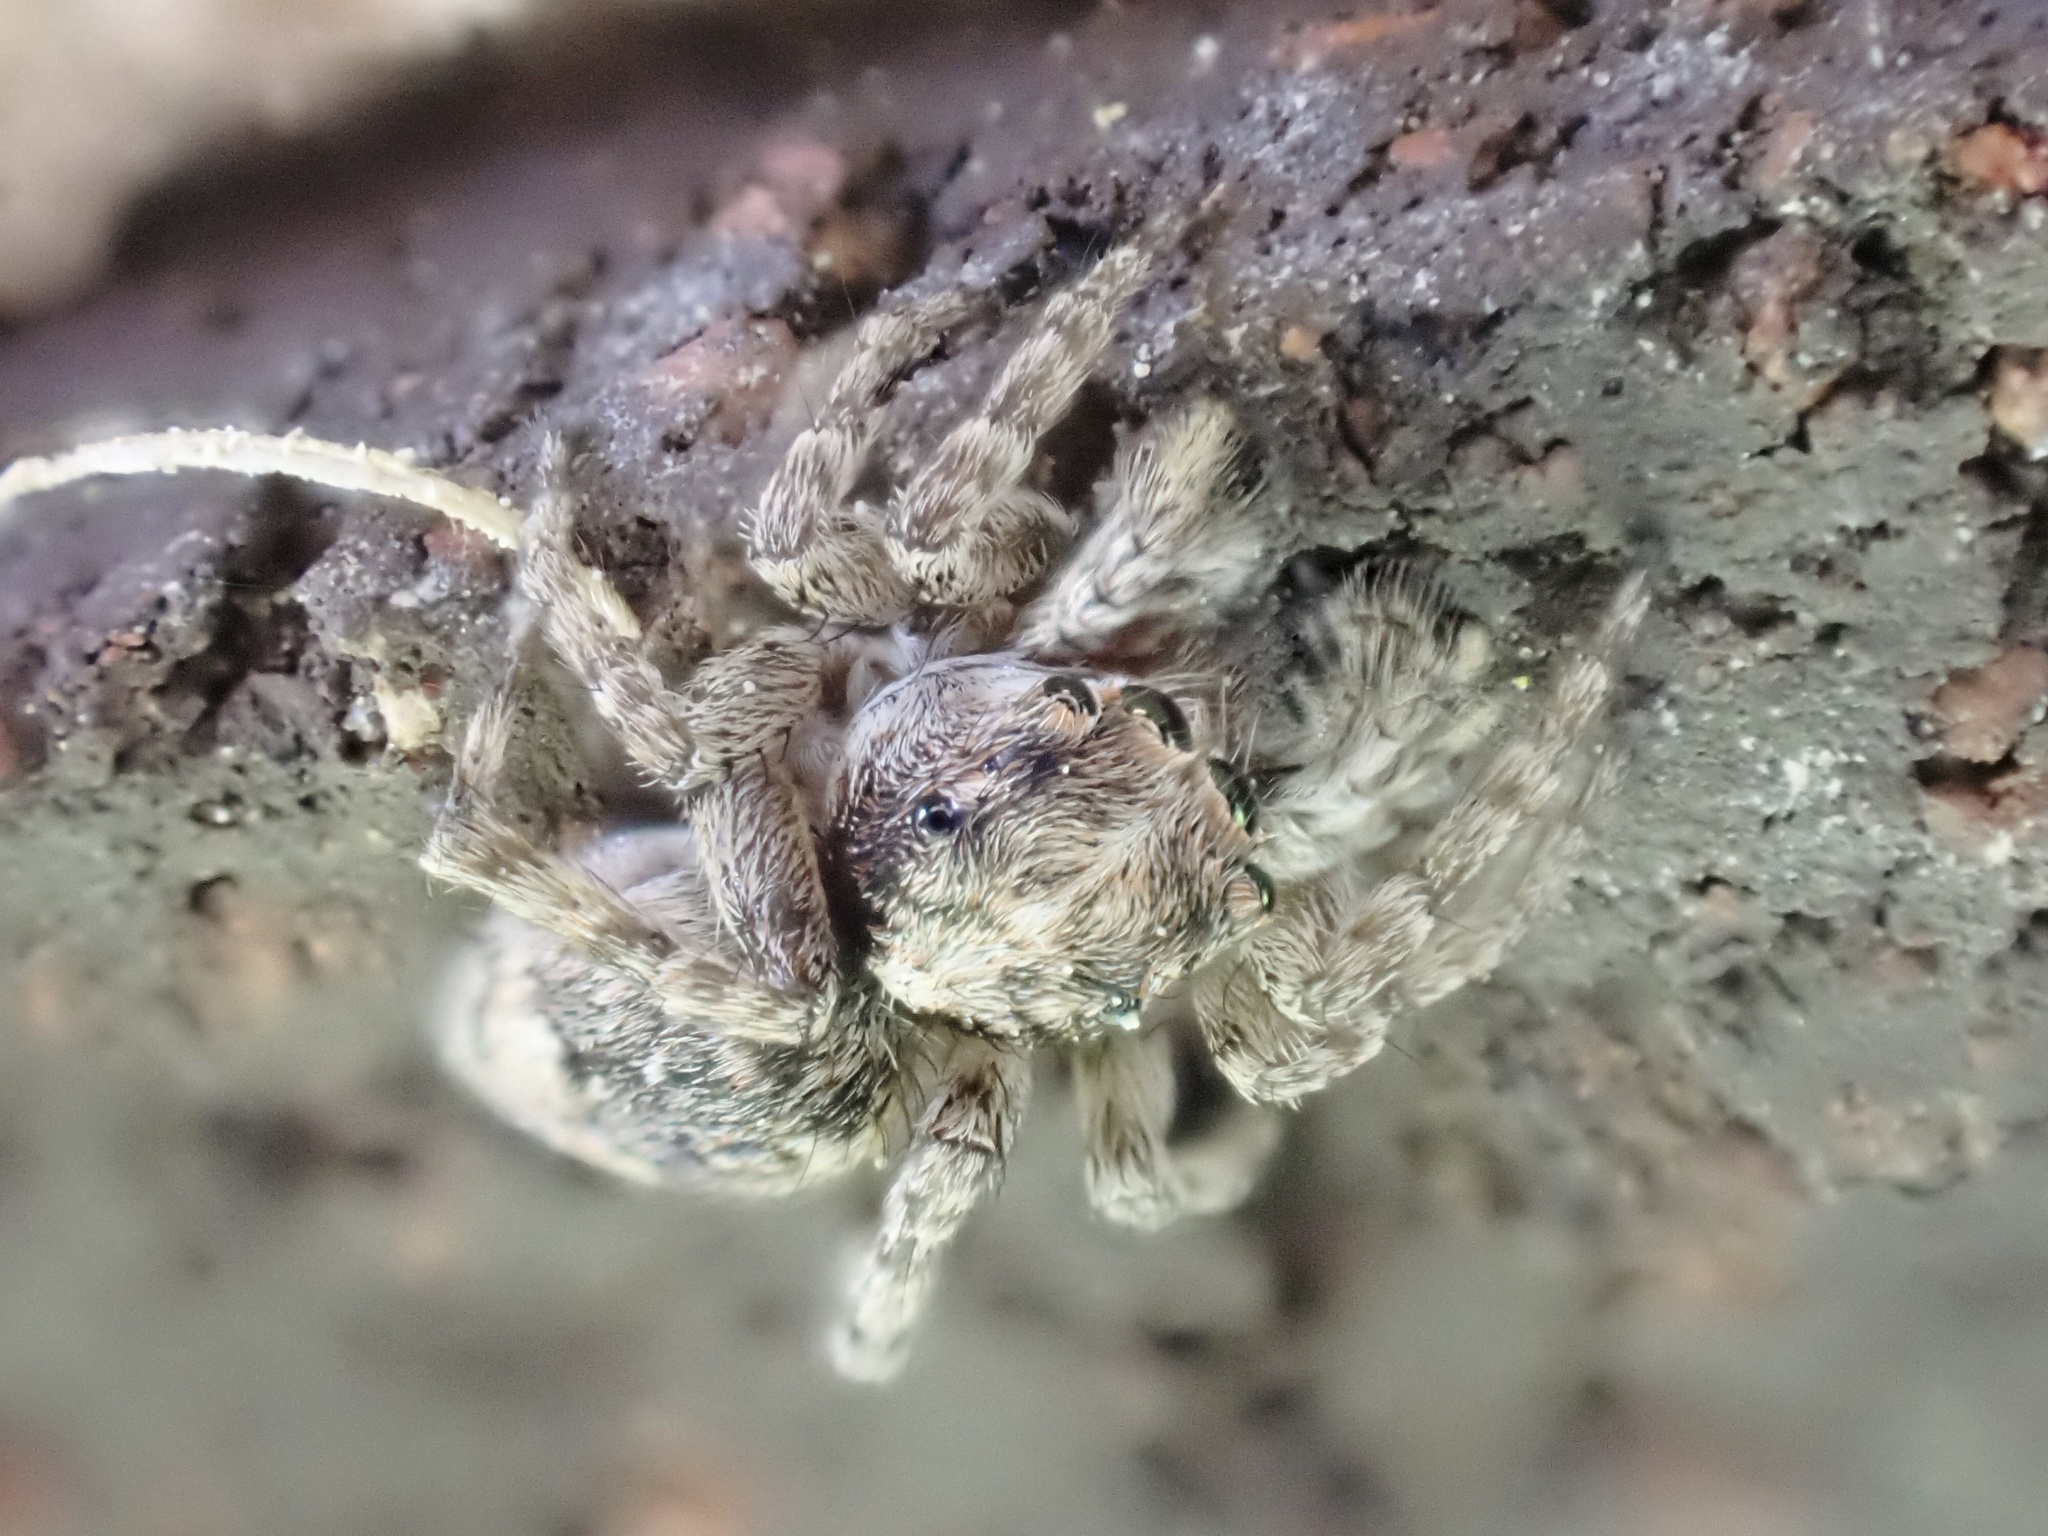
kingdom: Animalia
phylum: Arthropoda
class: Arachnida
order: Araneae
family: Salticidae
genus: Attulus
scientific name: Attulus fasciger
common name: Asiatic wall jumping spider
